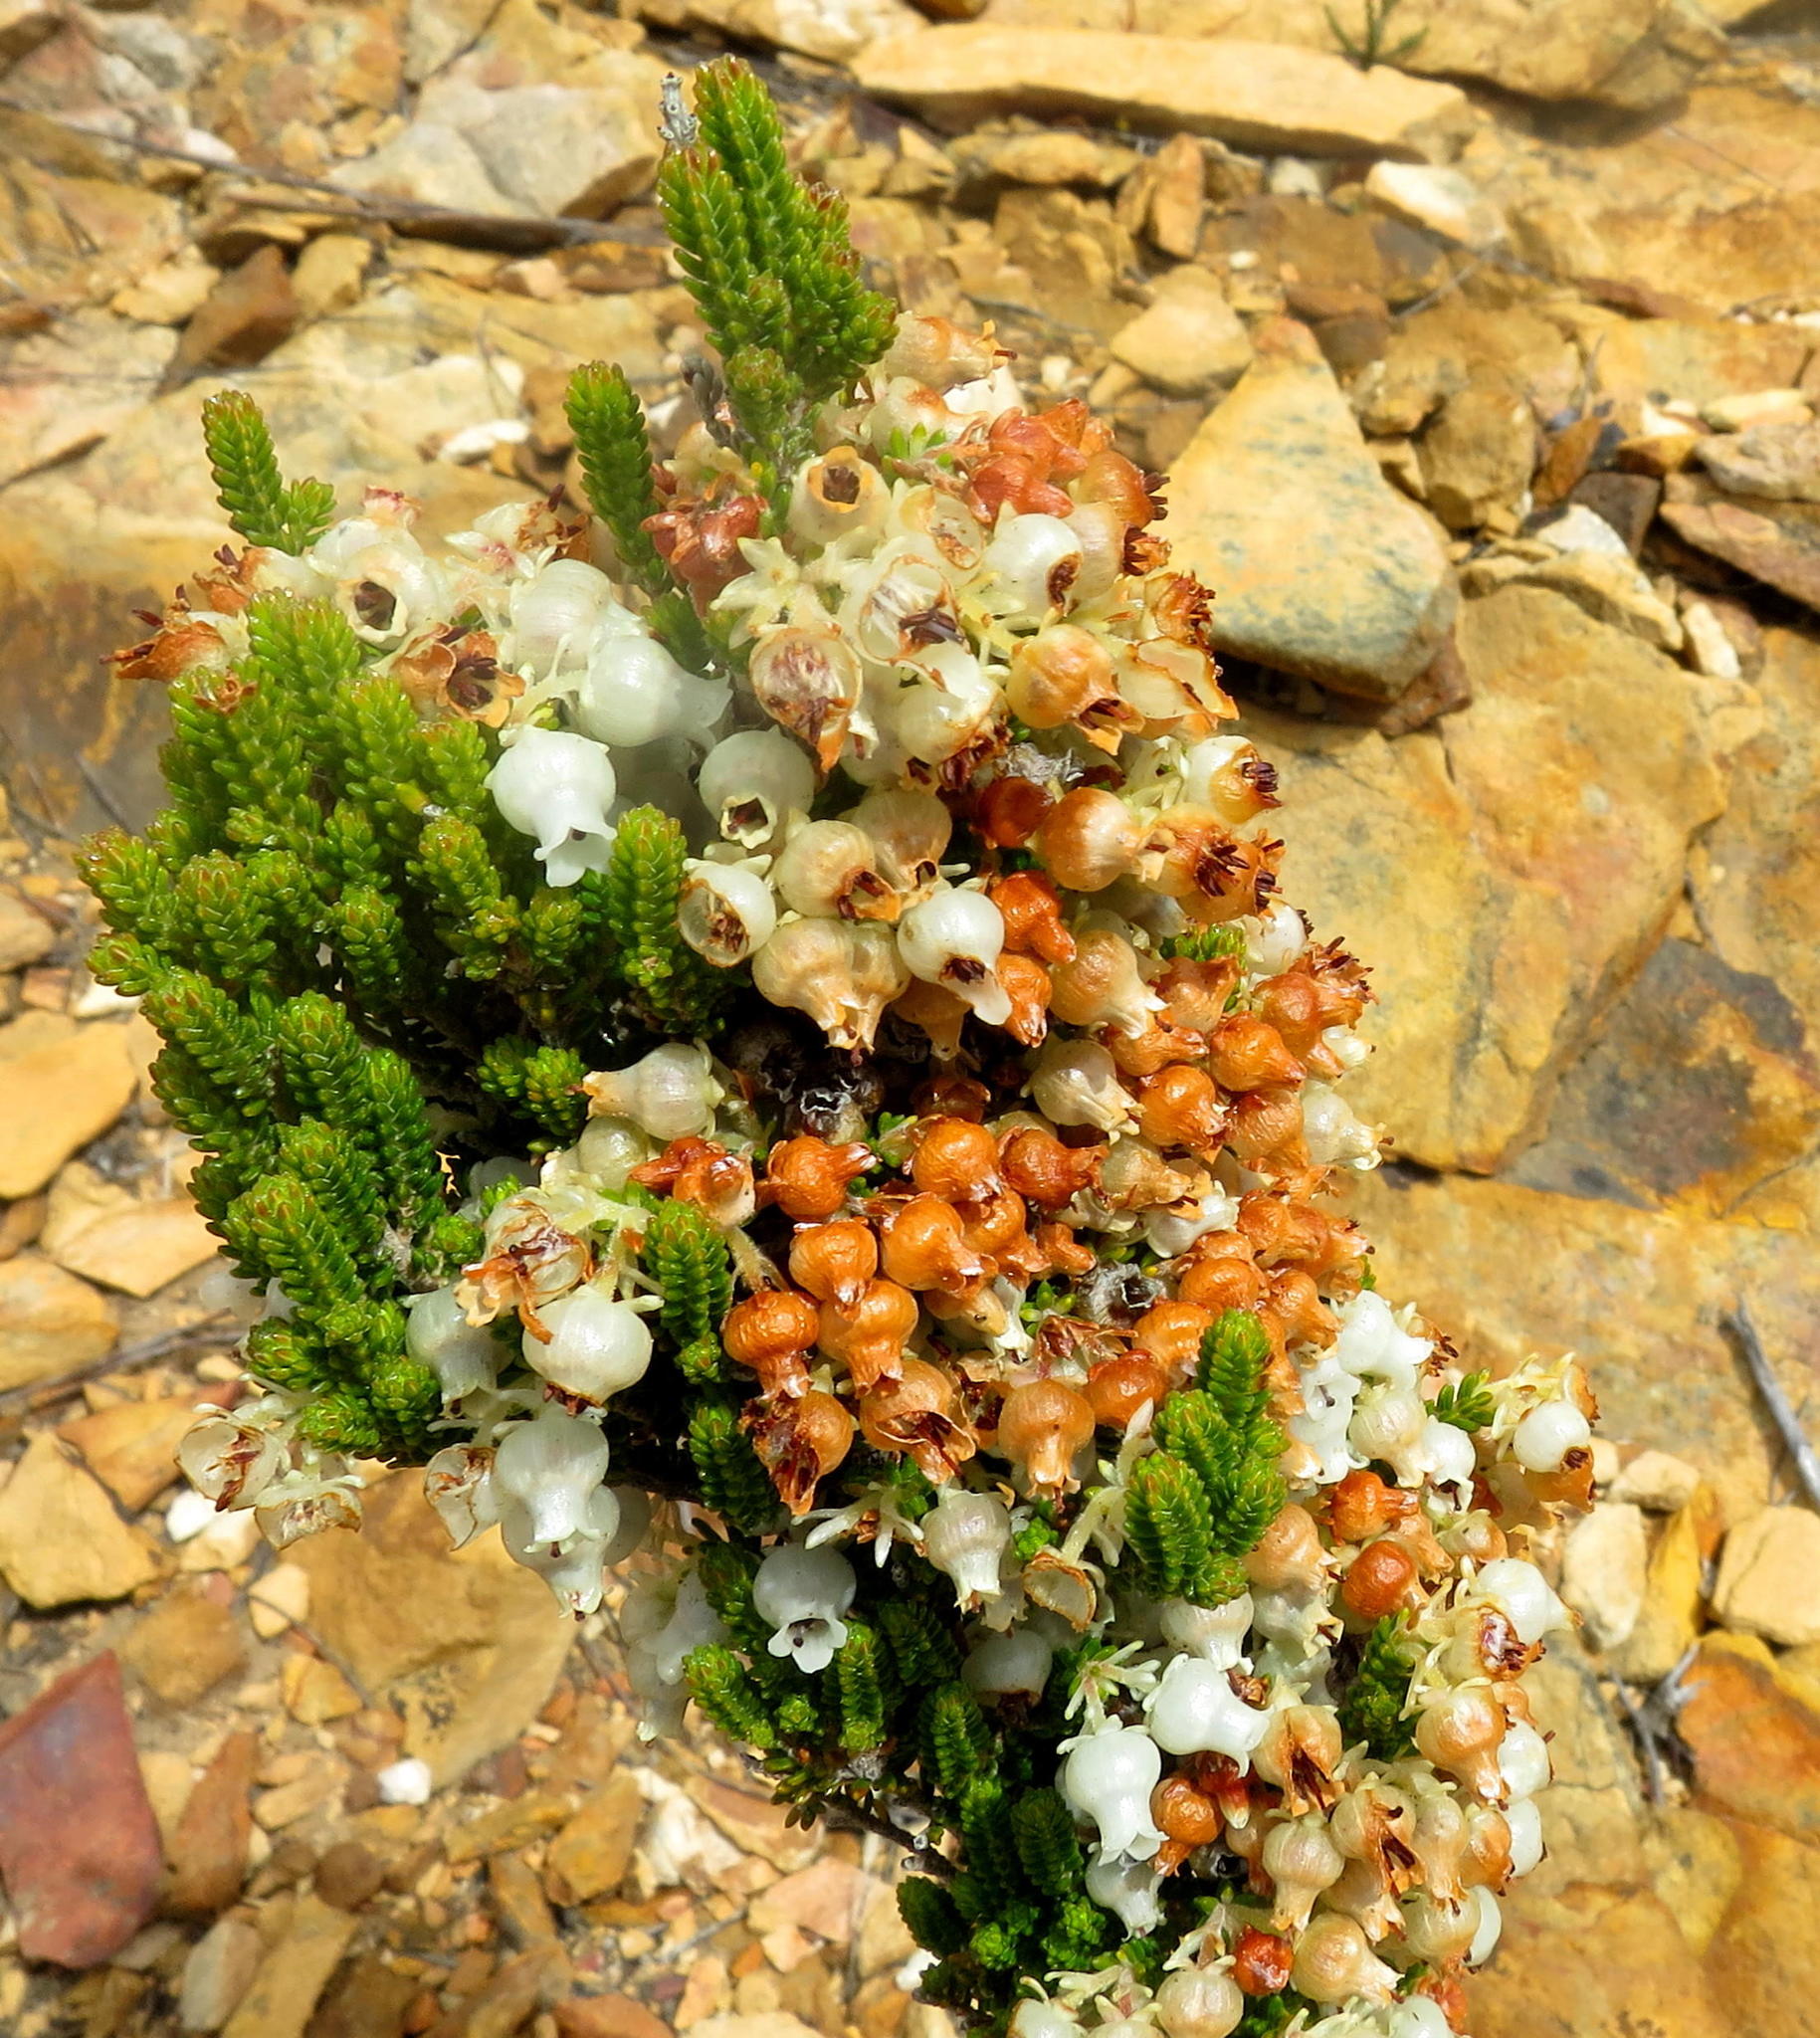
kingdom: Plantae
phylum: Tracheophyta
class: Magnoliopsida
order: Ericales
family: Ericaceae
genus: Erica
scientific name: Erica glomiflora
